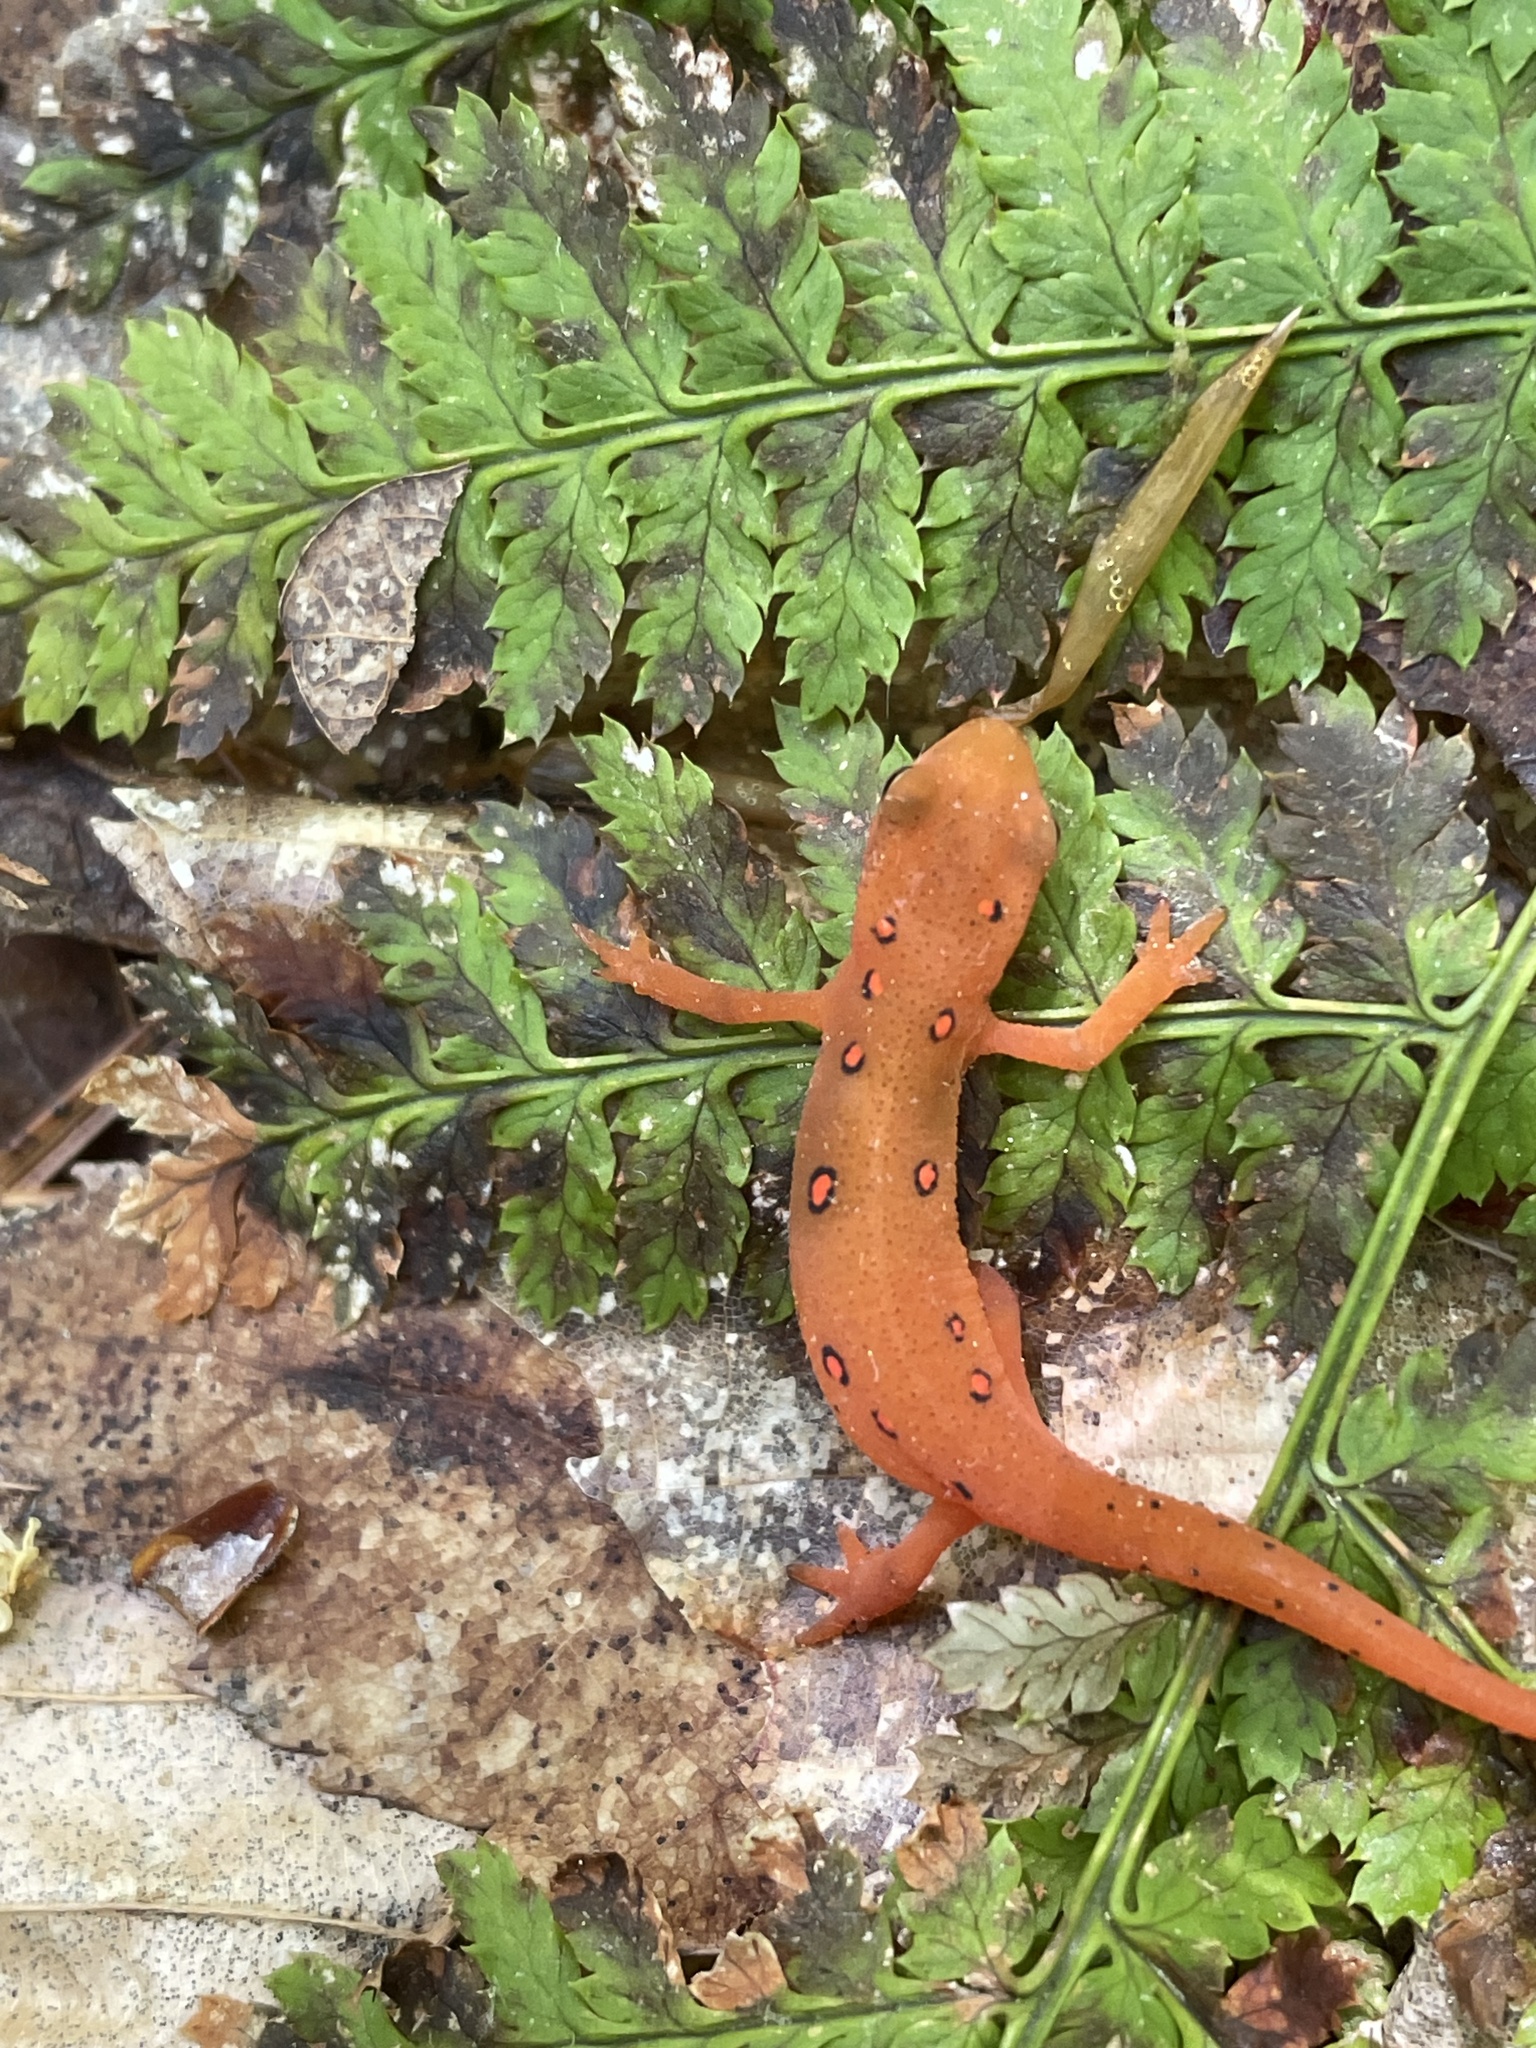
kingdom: Animalia
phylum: Chordata
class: Amphibia
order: Caudata
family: Salamandridae
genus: Notophthalmus
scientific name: Notophthalmus viridescens
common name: Eastern newt
